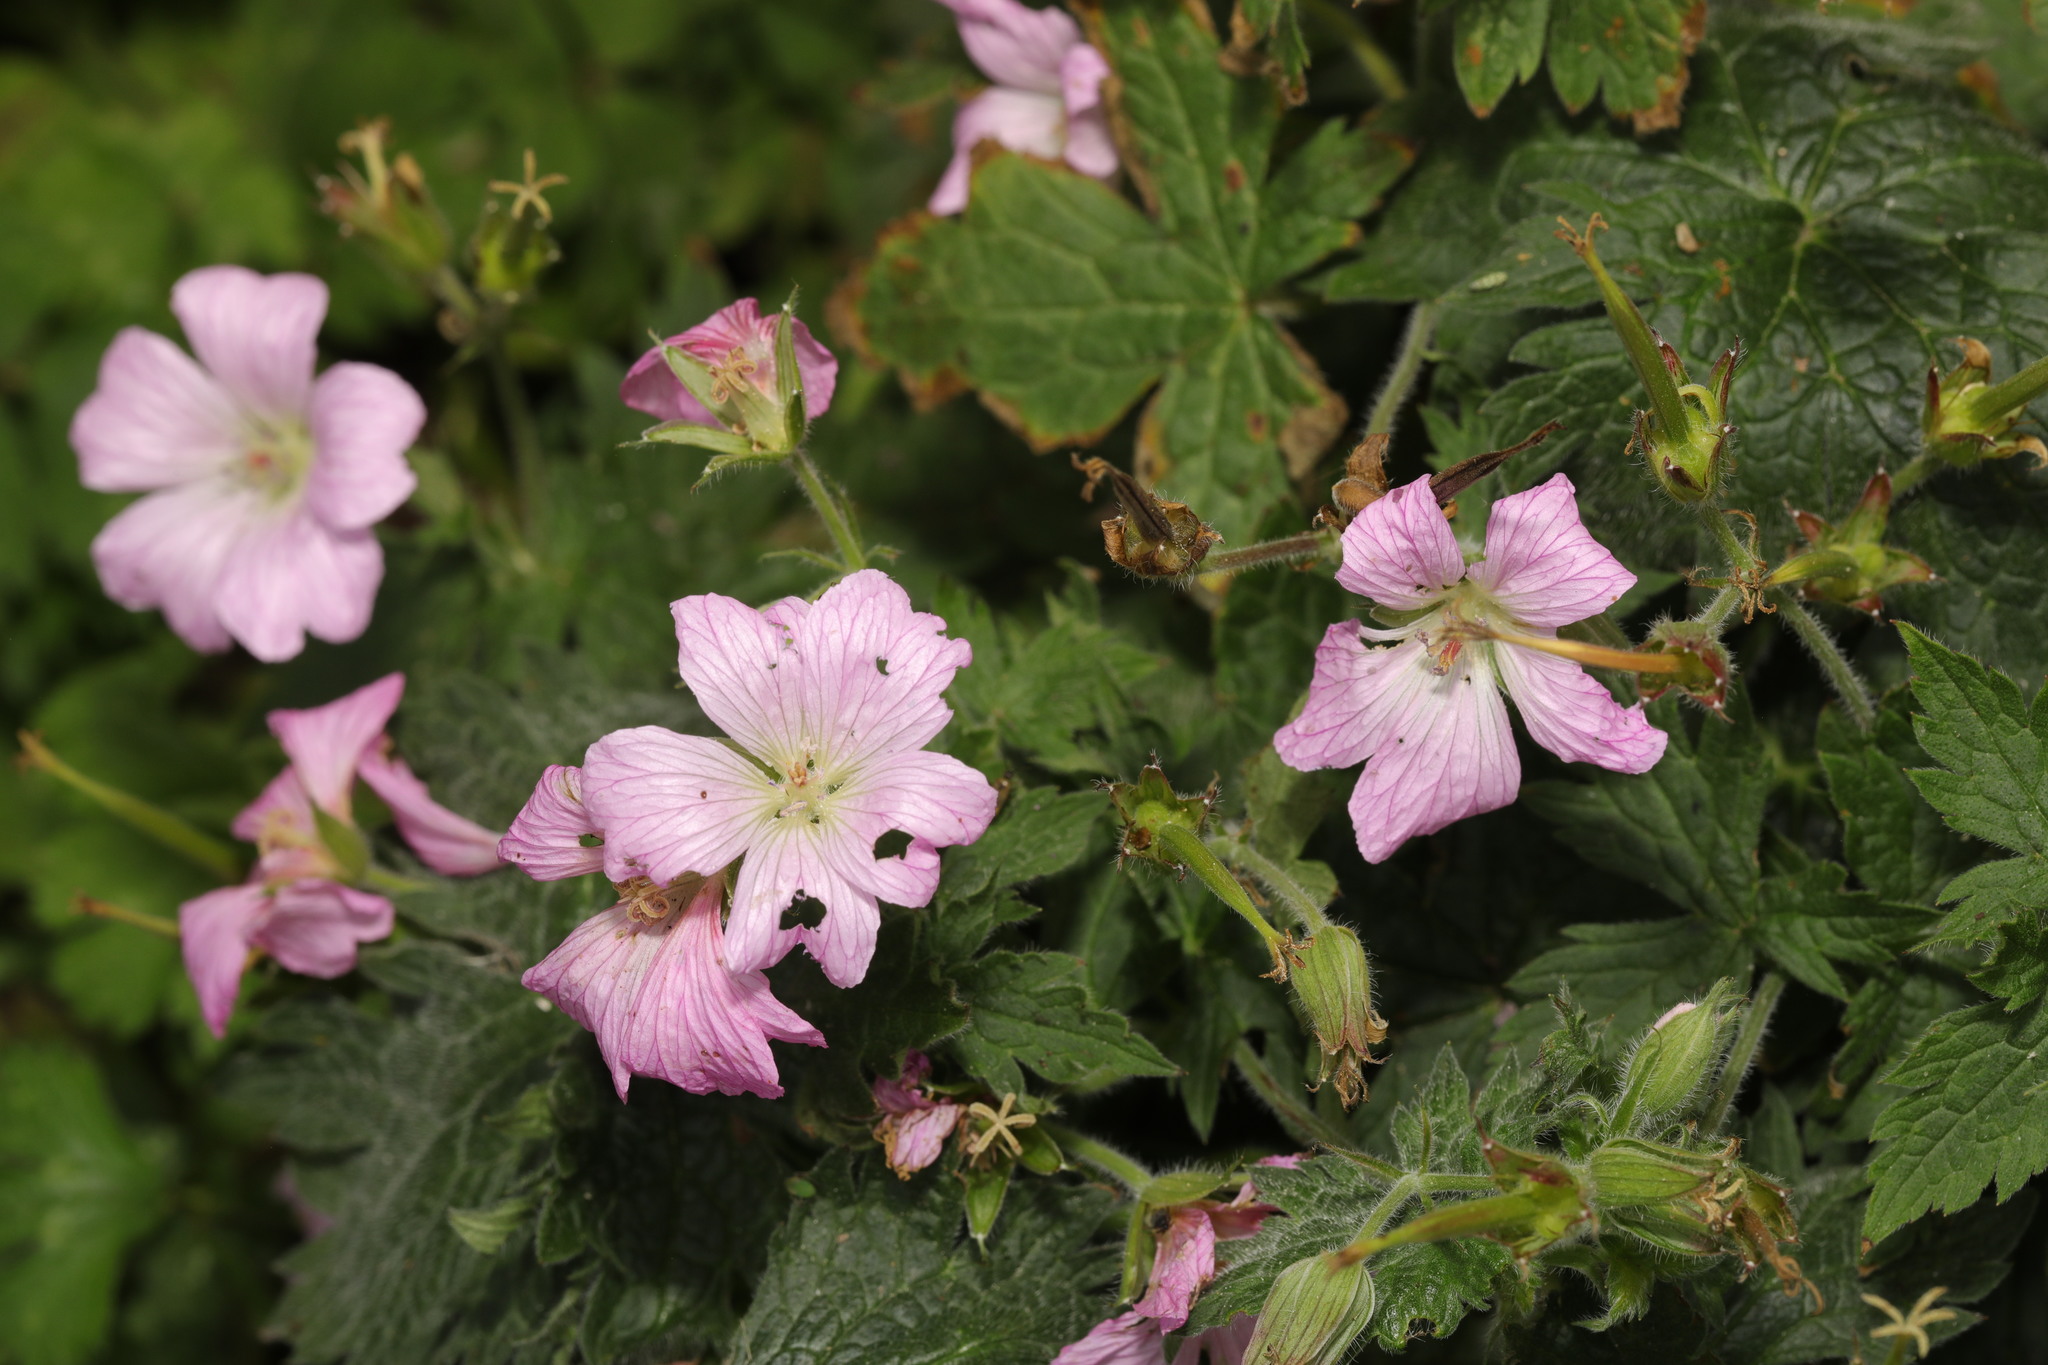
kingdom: Plantae
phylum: Tracheophyta
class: Magnoliopsida
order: Geraniales
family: Geraniaceae
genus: Geranium
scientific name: Geranium oxonianum
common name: Druce's crane's-bill
